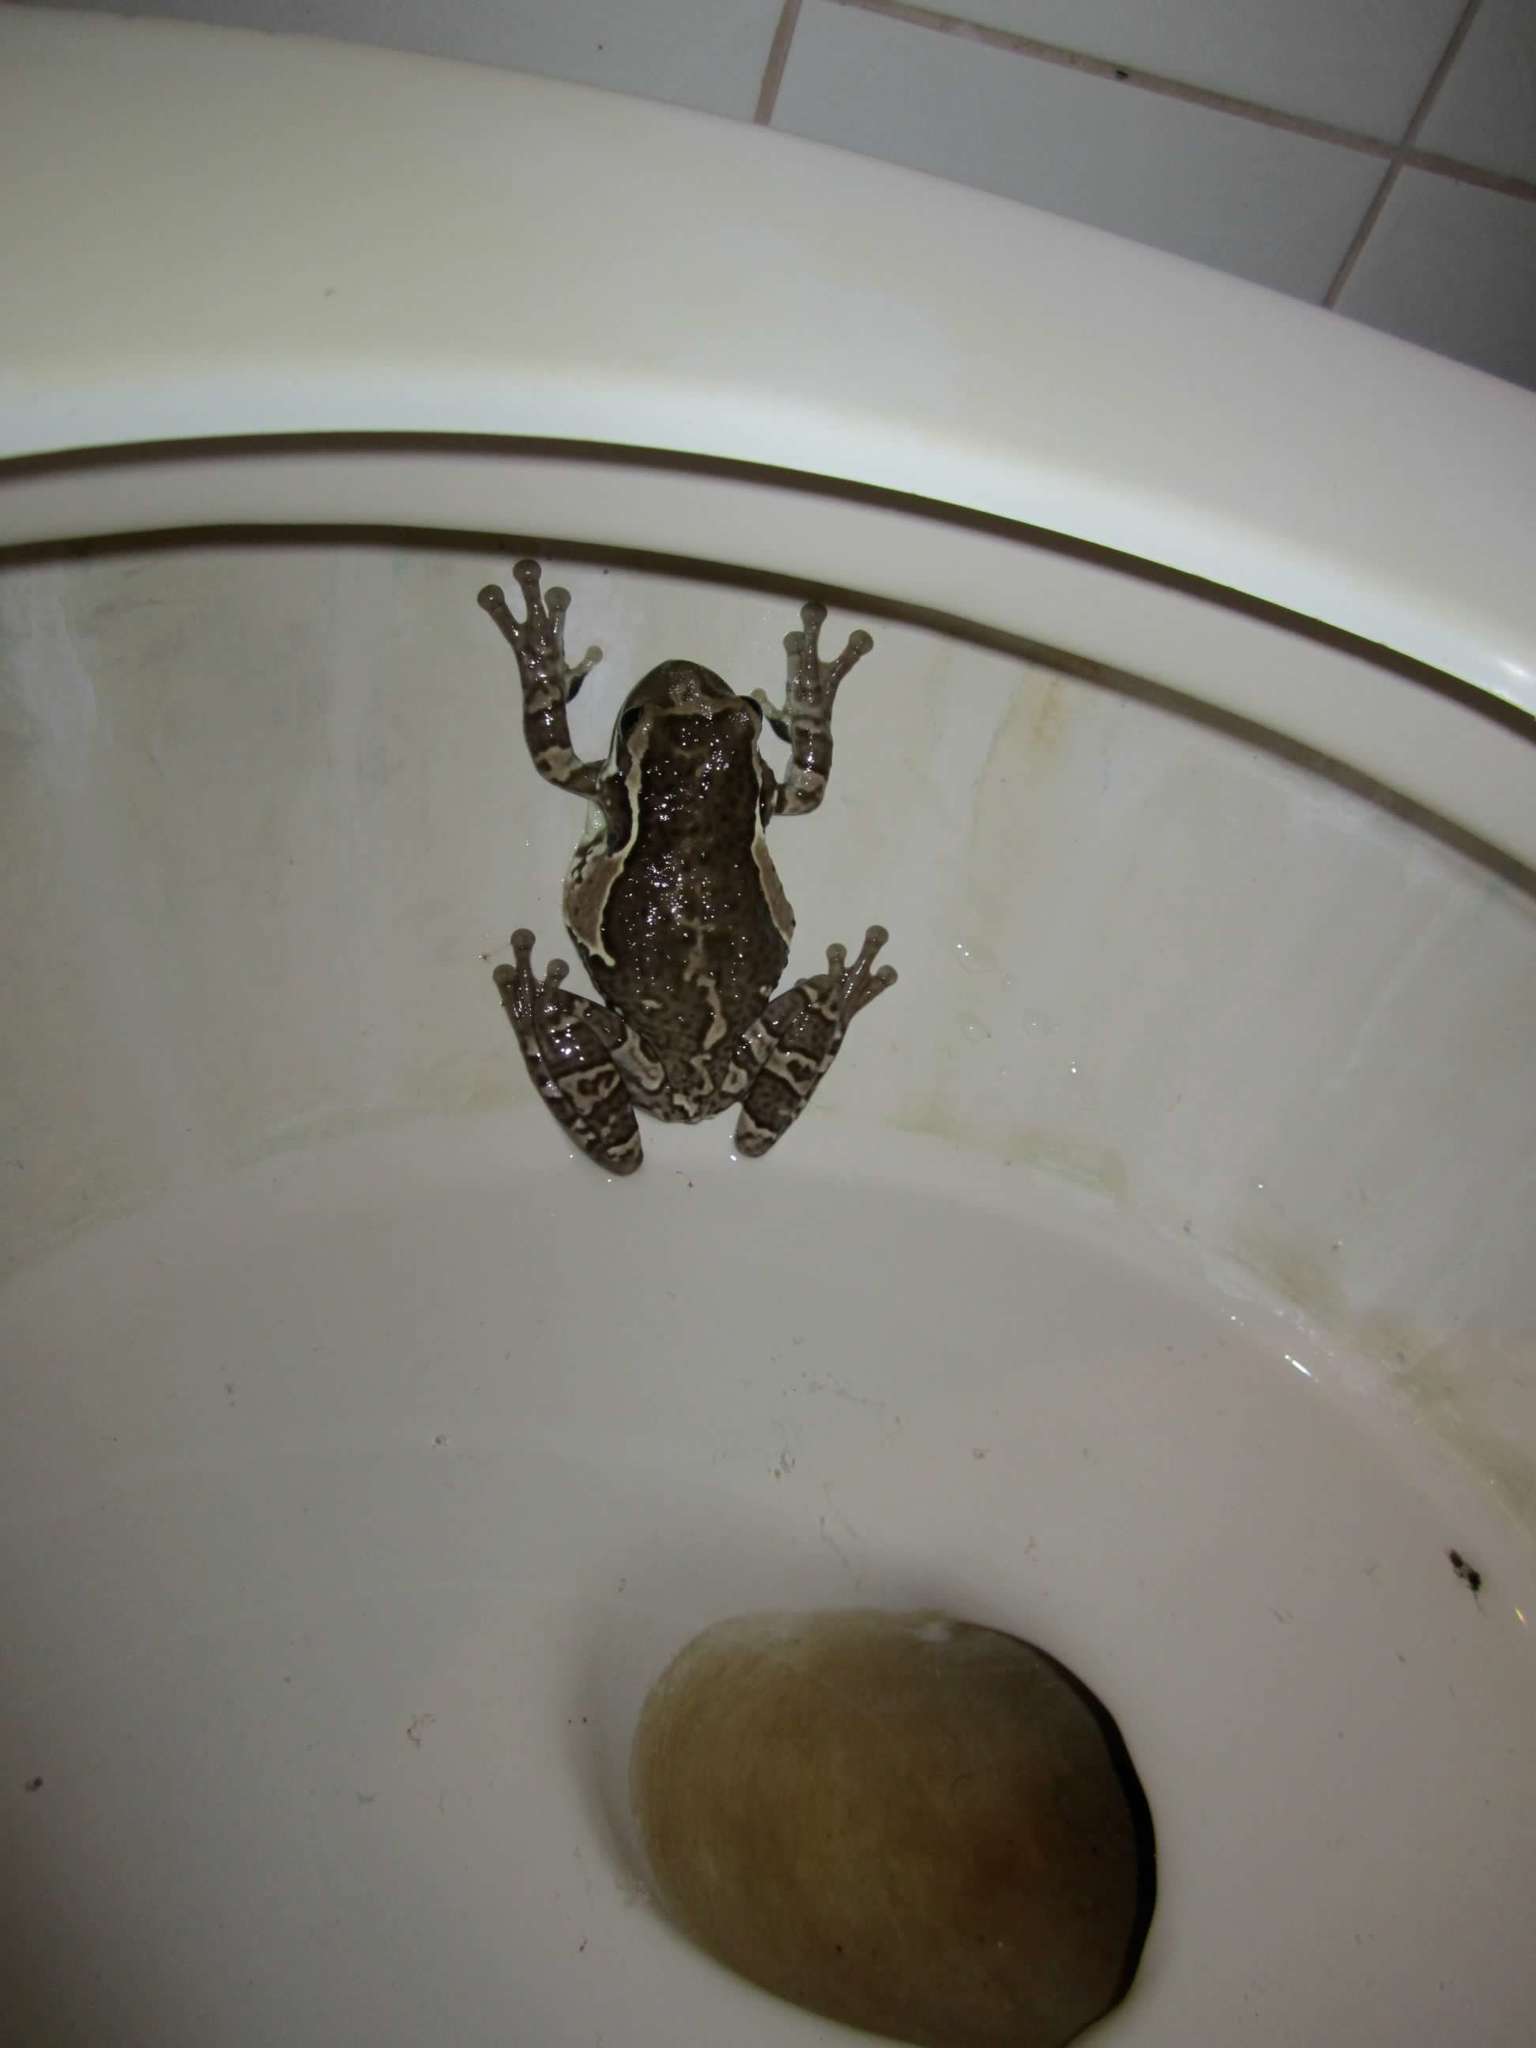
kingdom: Animalia
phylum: Chordata
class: Amphibia
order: Anura
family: Hylidae
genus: Trachycephalus
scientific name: Trachycephalus vermiculatus
